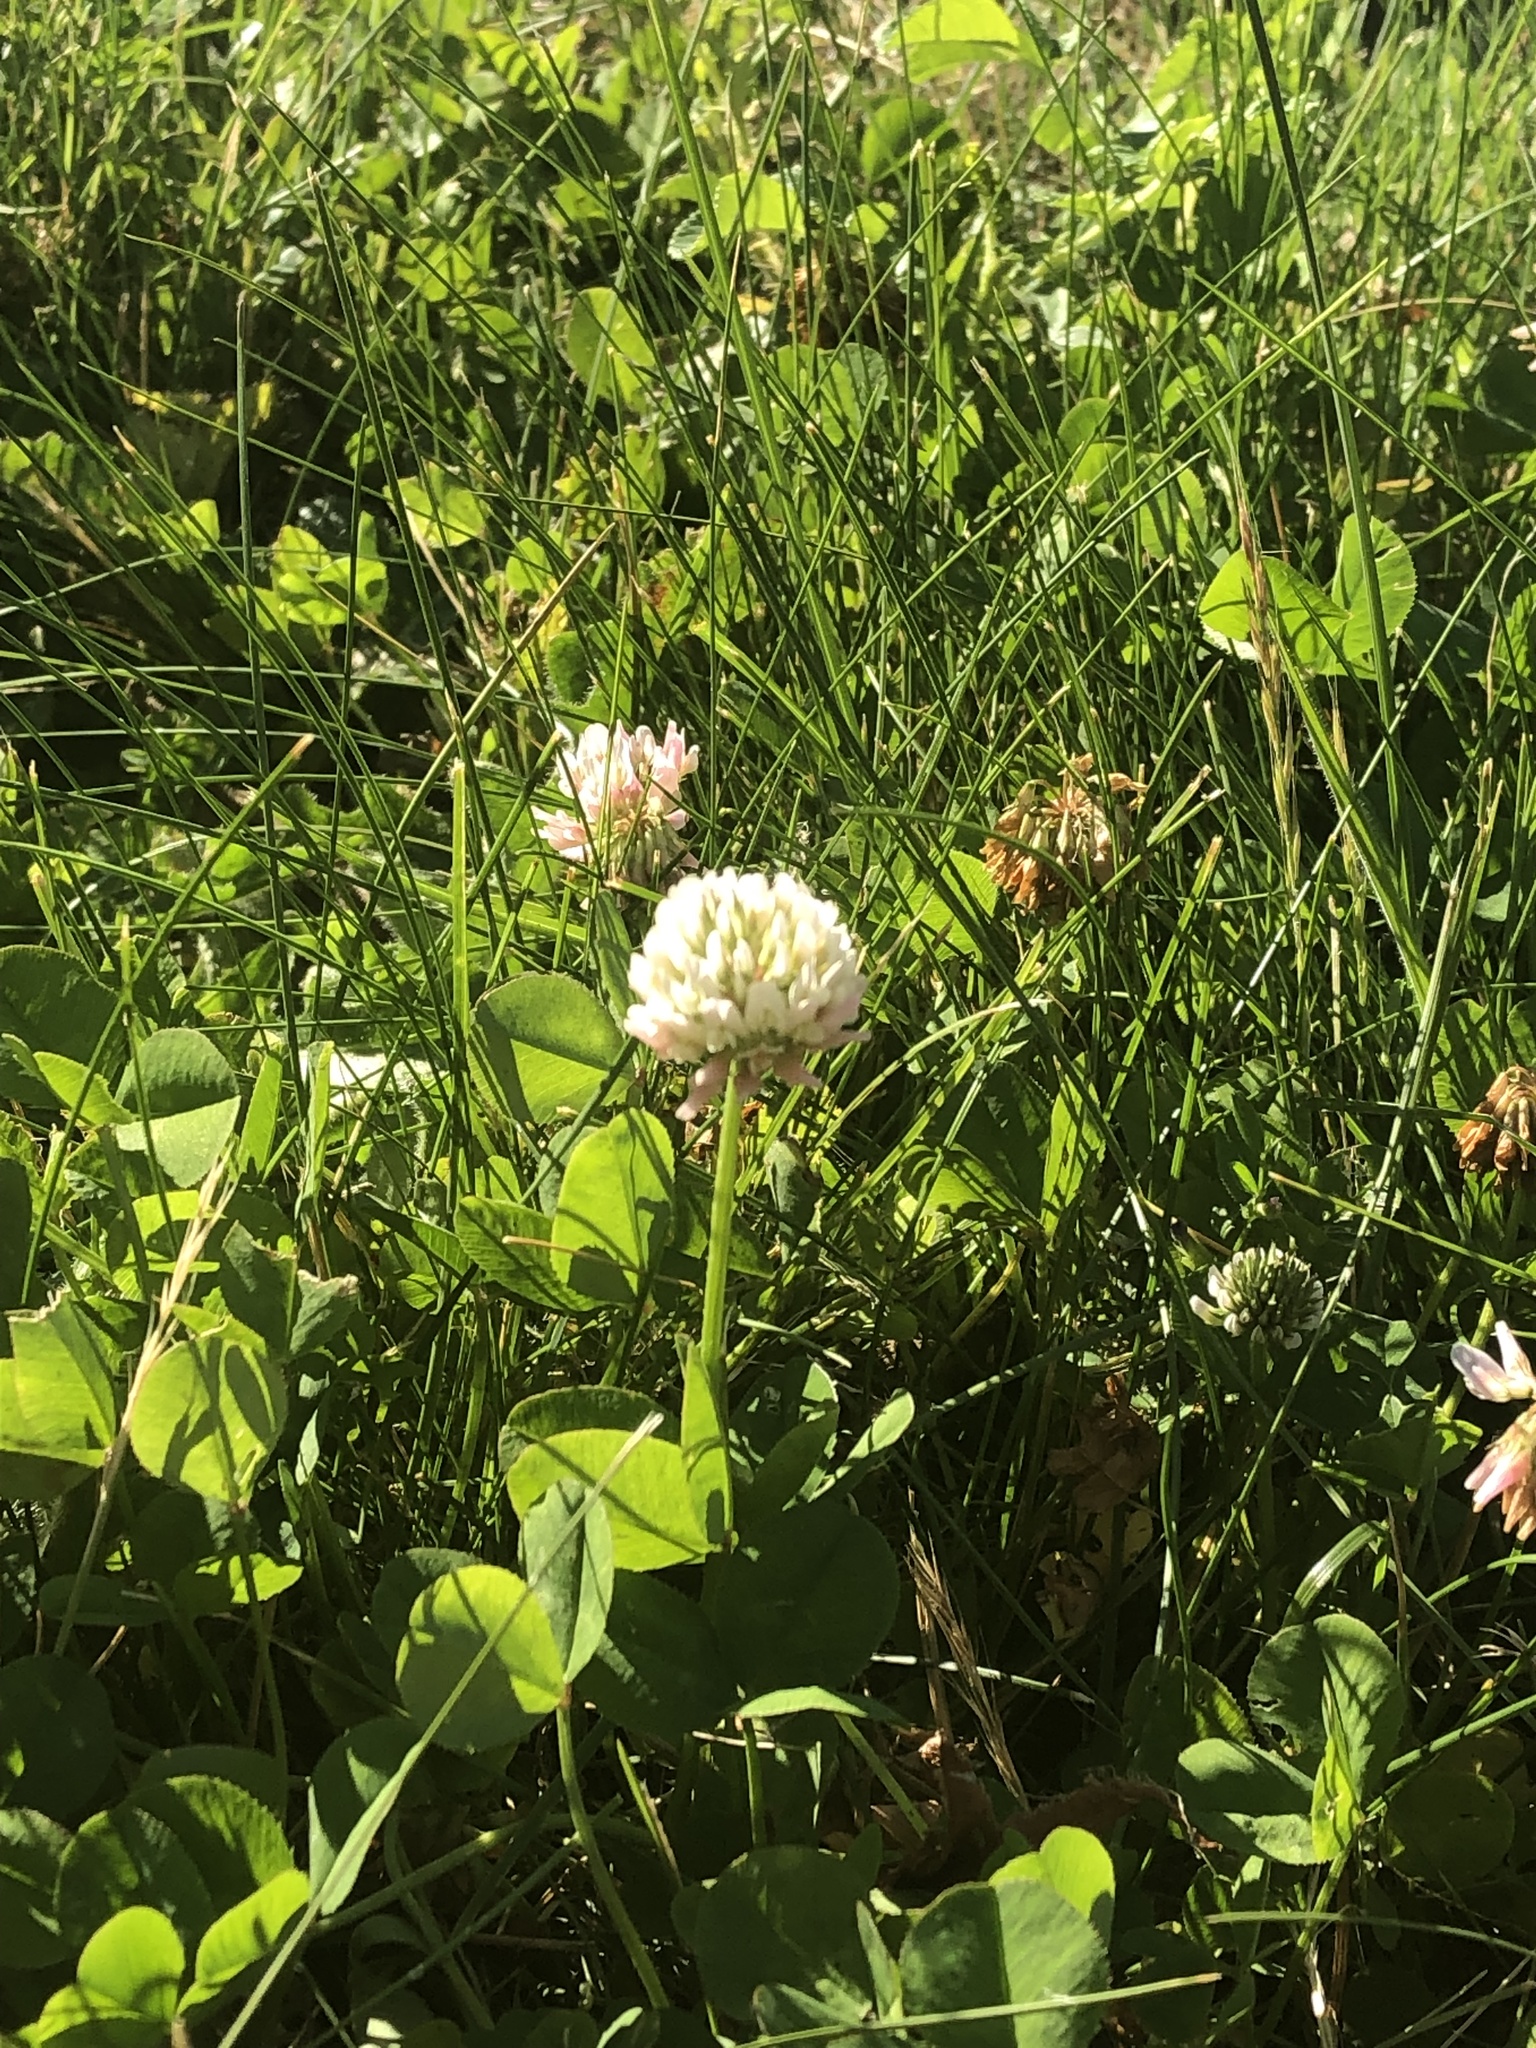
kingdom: Plantae
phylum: Tracheophyta
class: Magnoliopsida
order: Fabales
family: Fabaceae
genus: Trifolium
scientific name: Trifolium repens
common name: White clover
